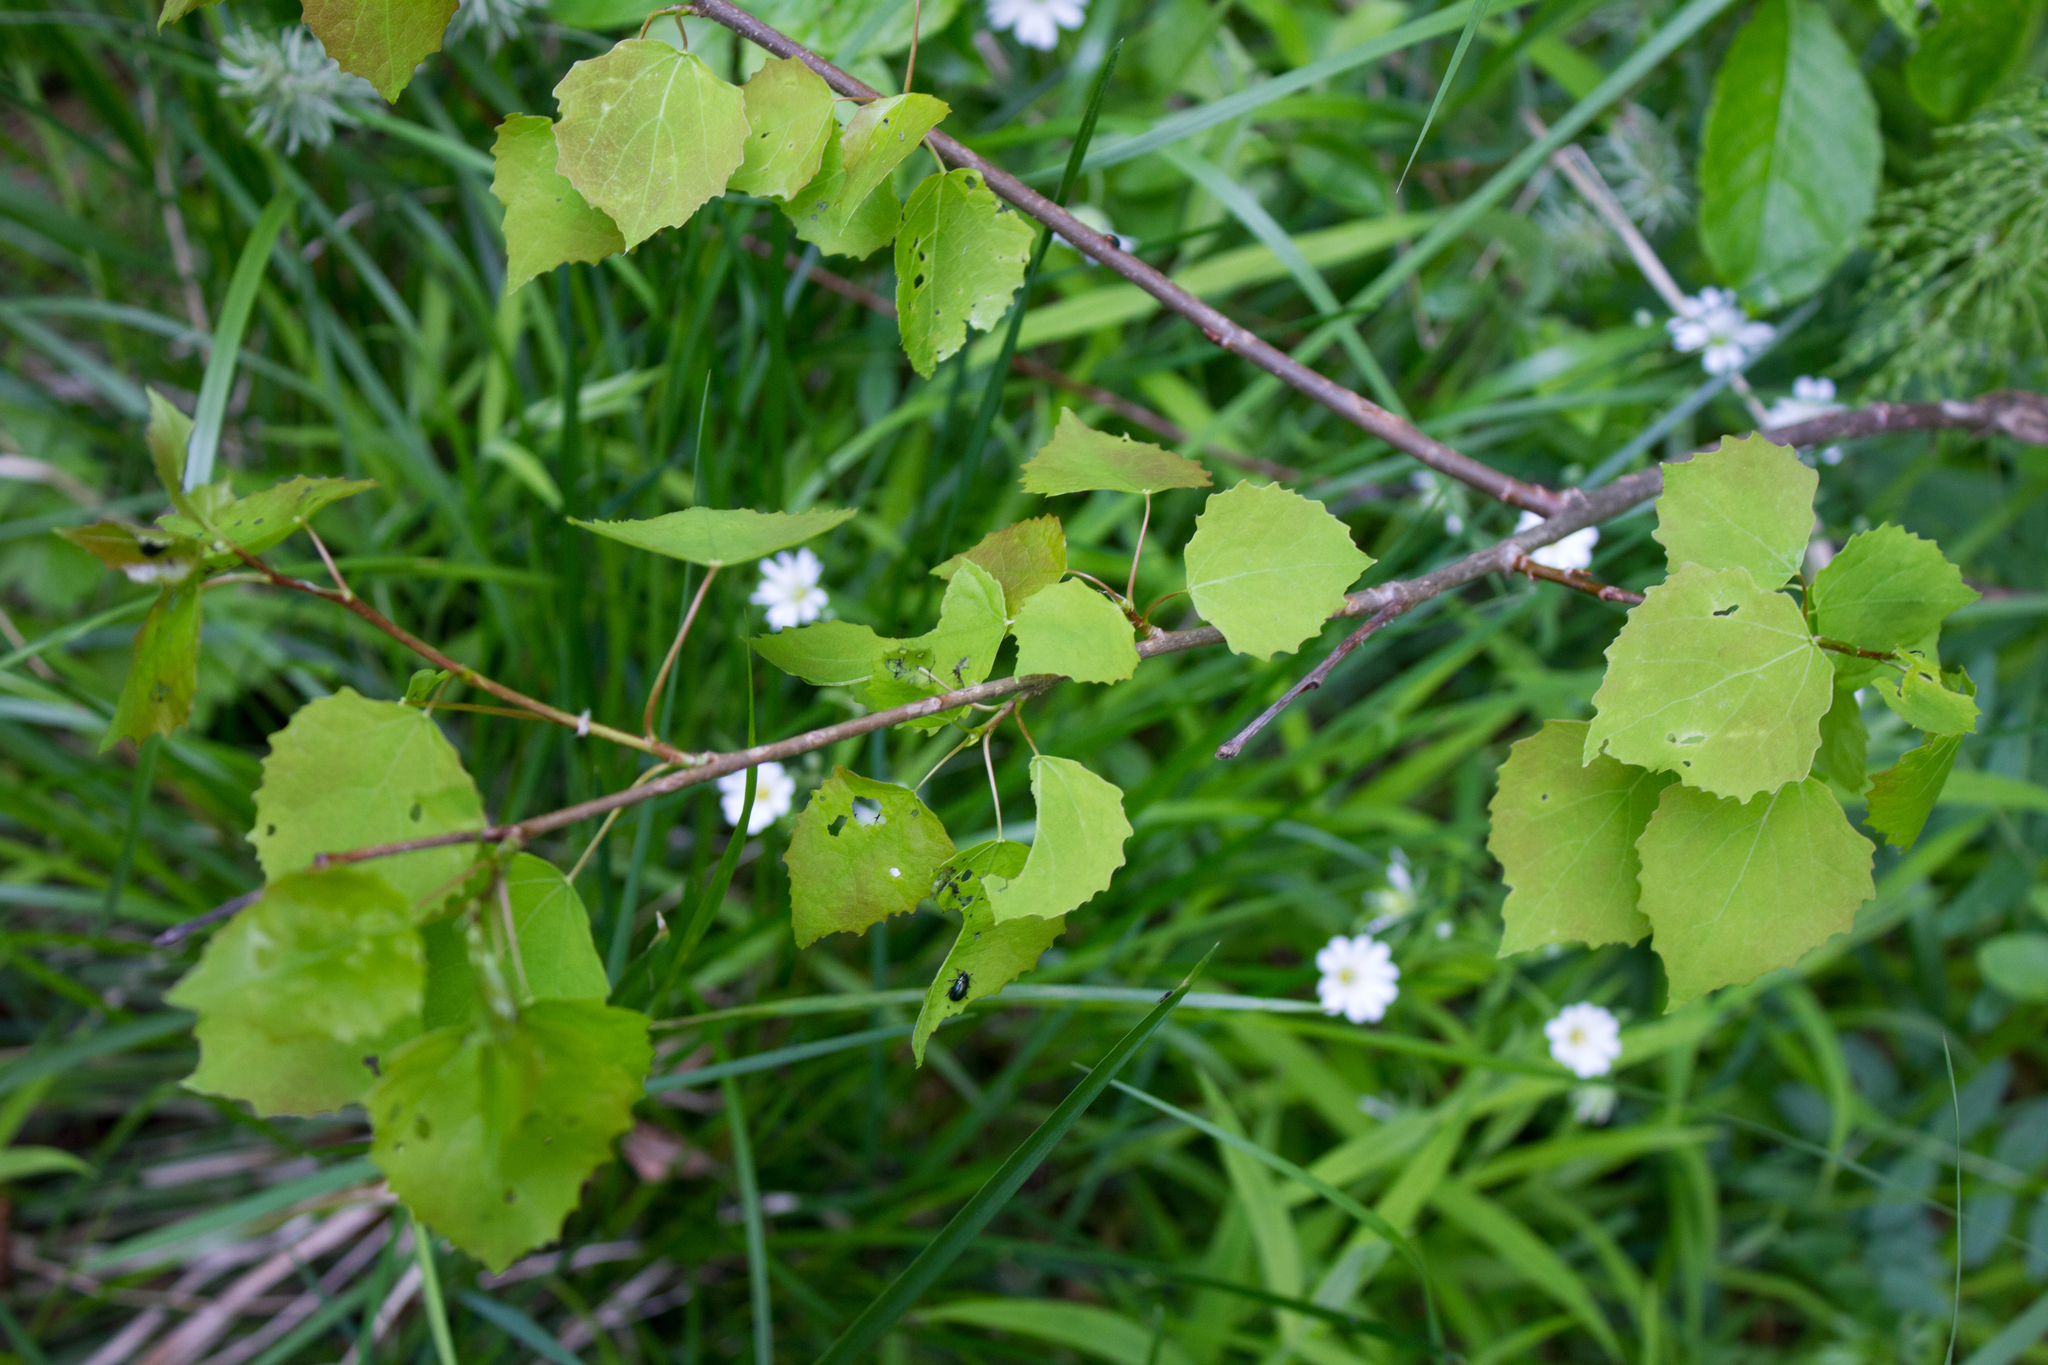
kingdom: Plantae
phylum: Tracheophyta
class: Magnoliopsida
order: Malpighiales
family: Salicaceae
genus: Populus
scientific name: Populus tremula
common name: European aspen
